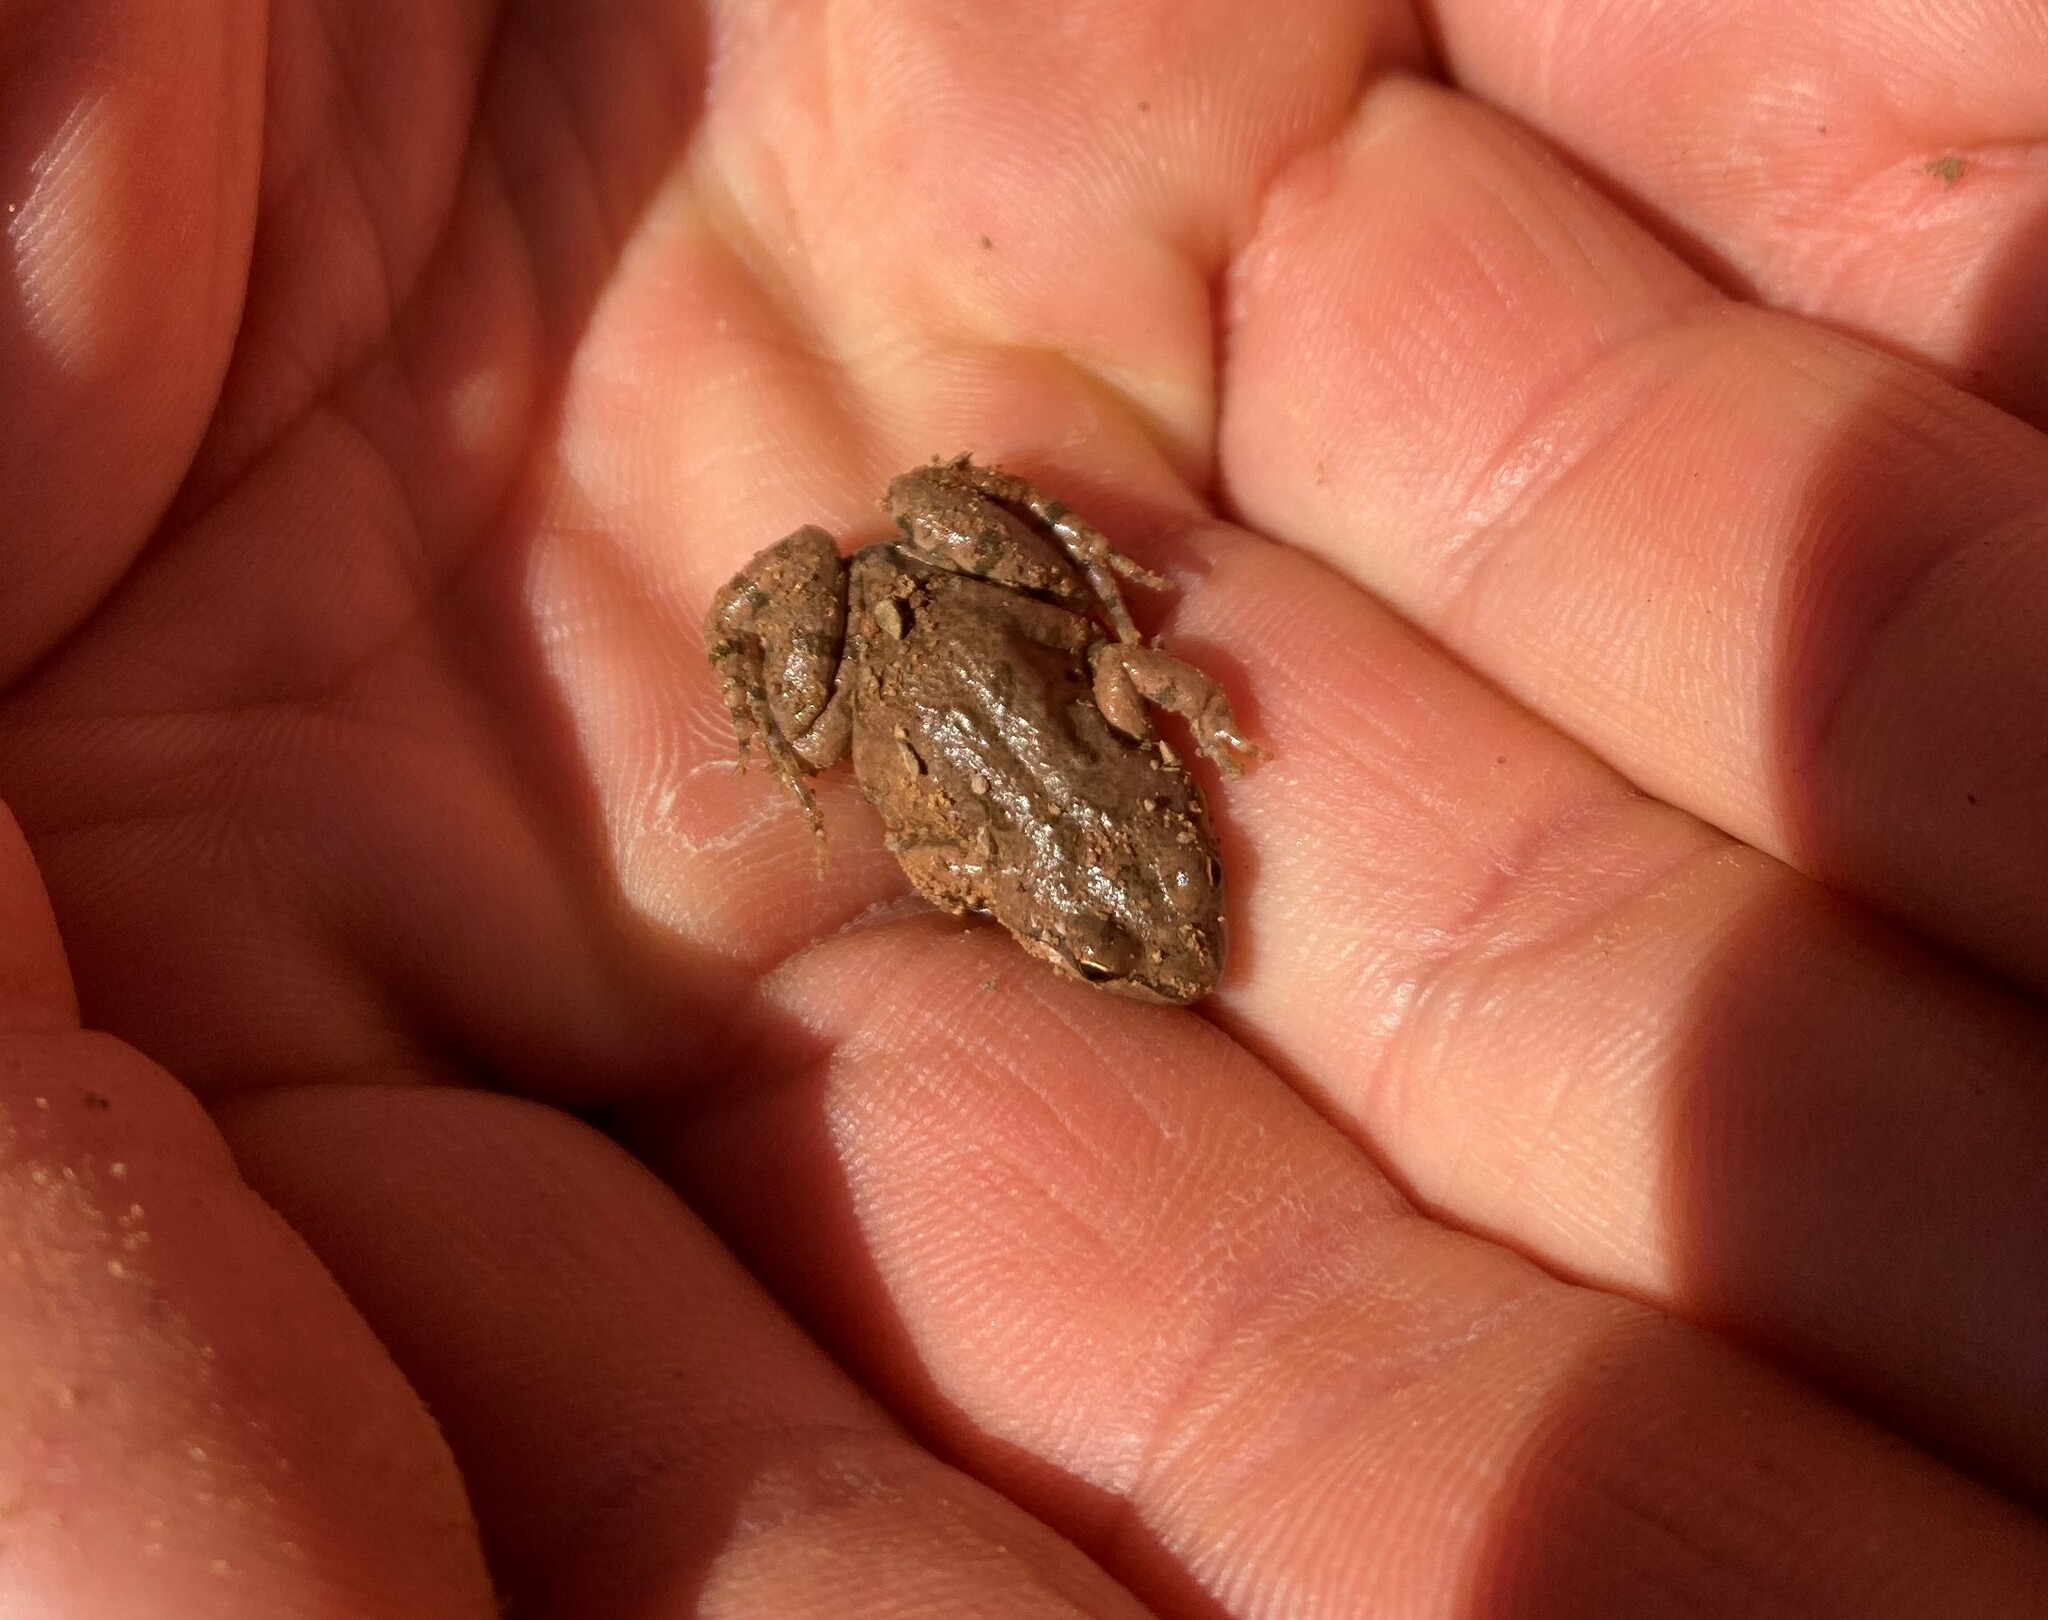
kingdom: Animalia
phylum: Chordata
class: Amphibia
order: Anura
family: Pyxicephalidae
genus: Cacosternum
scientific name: Cacosternum boettgeri
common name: Boettger's frog
